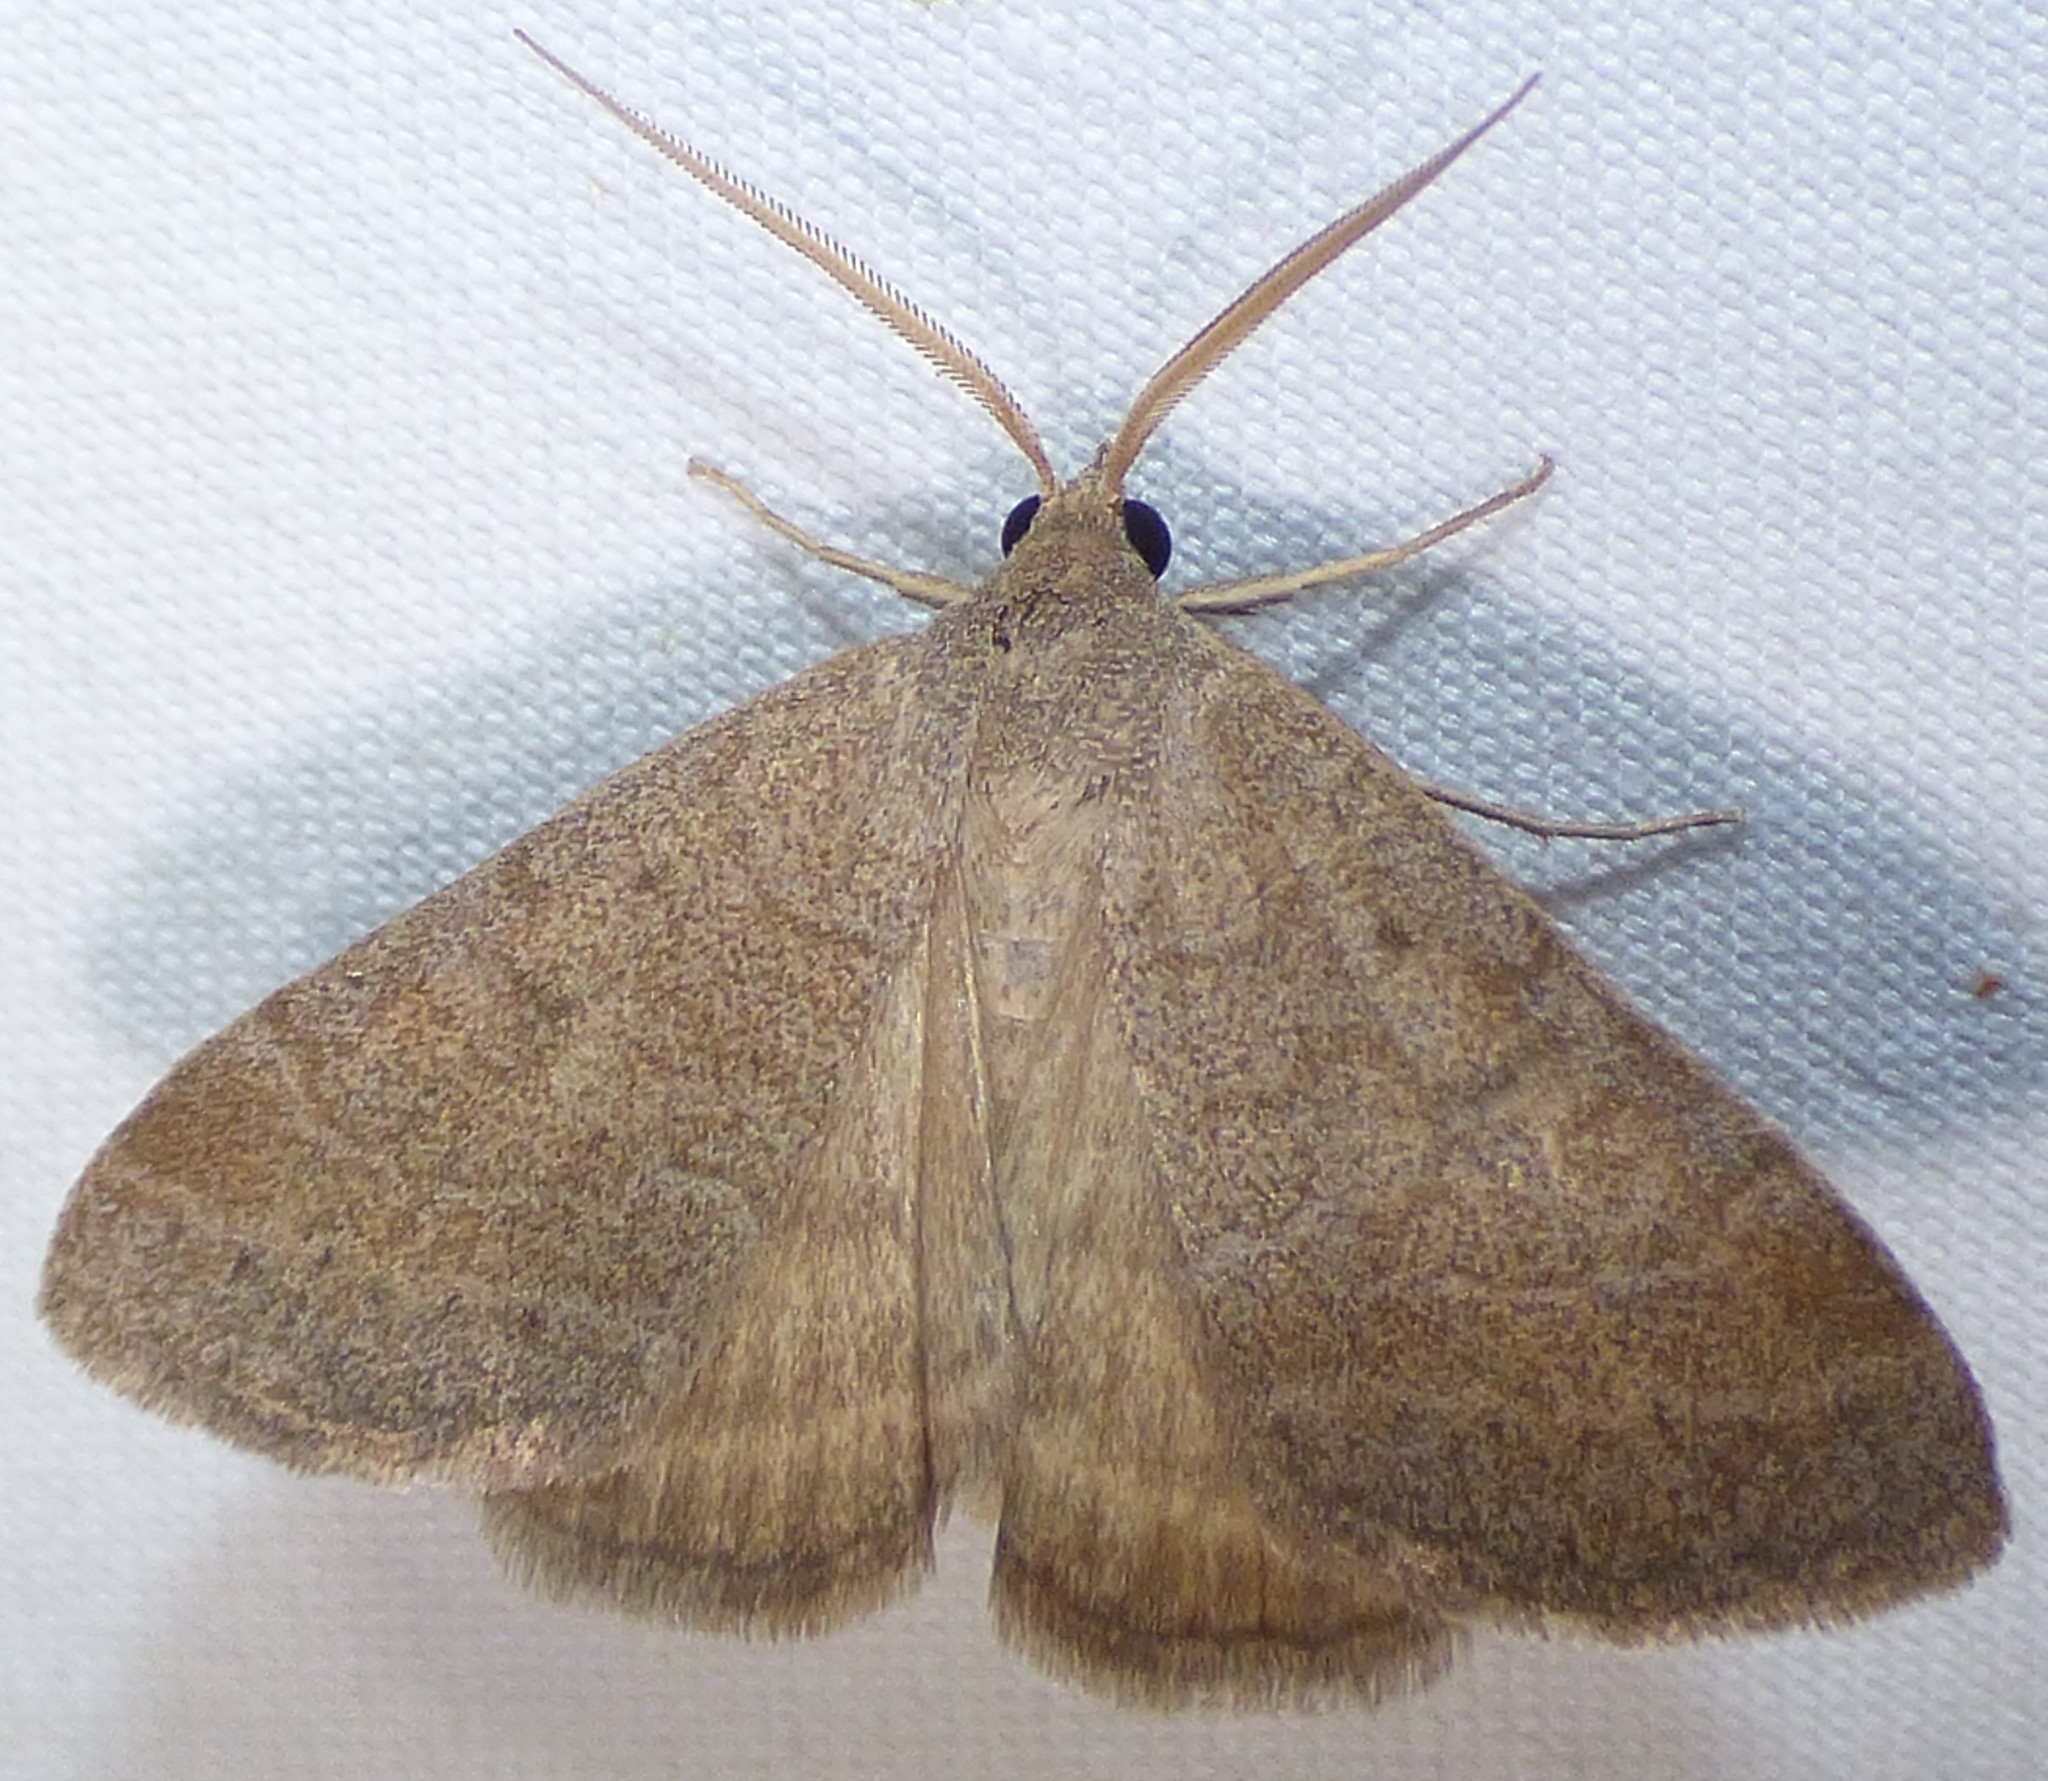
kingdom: Animalia
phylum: Arthropoda
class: Insecta
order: Lepidoptera
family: Erebidae
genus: Caenurgia
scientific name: Caenurgia chloropha
